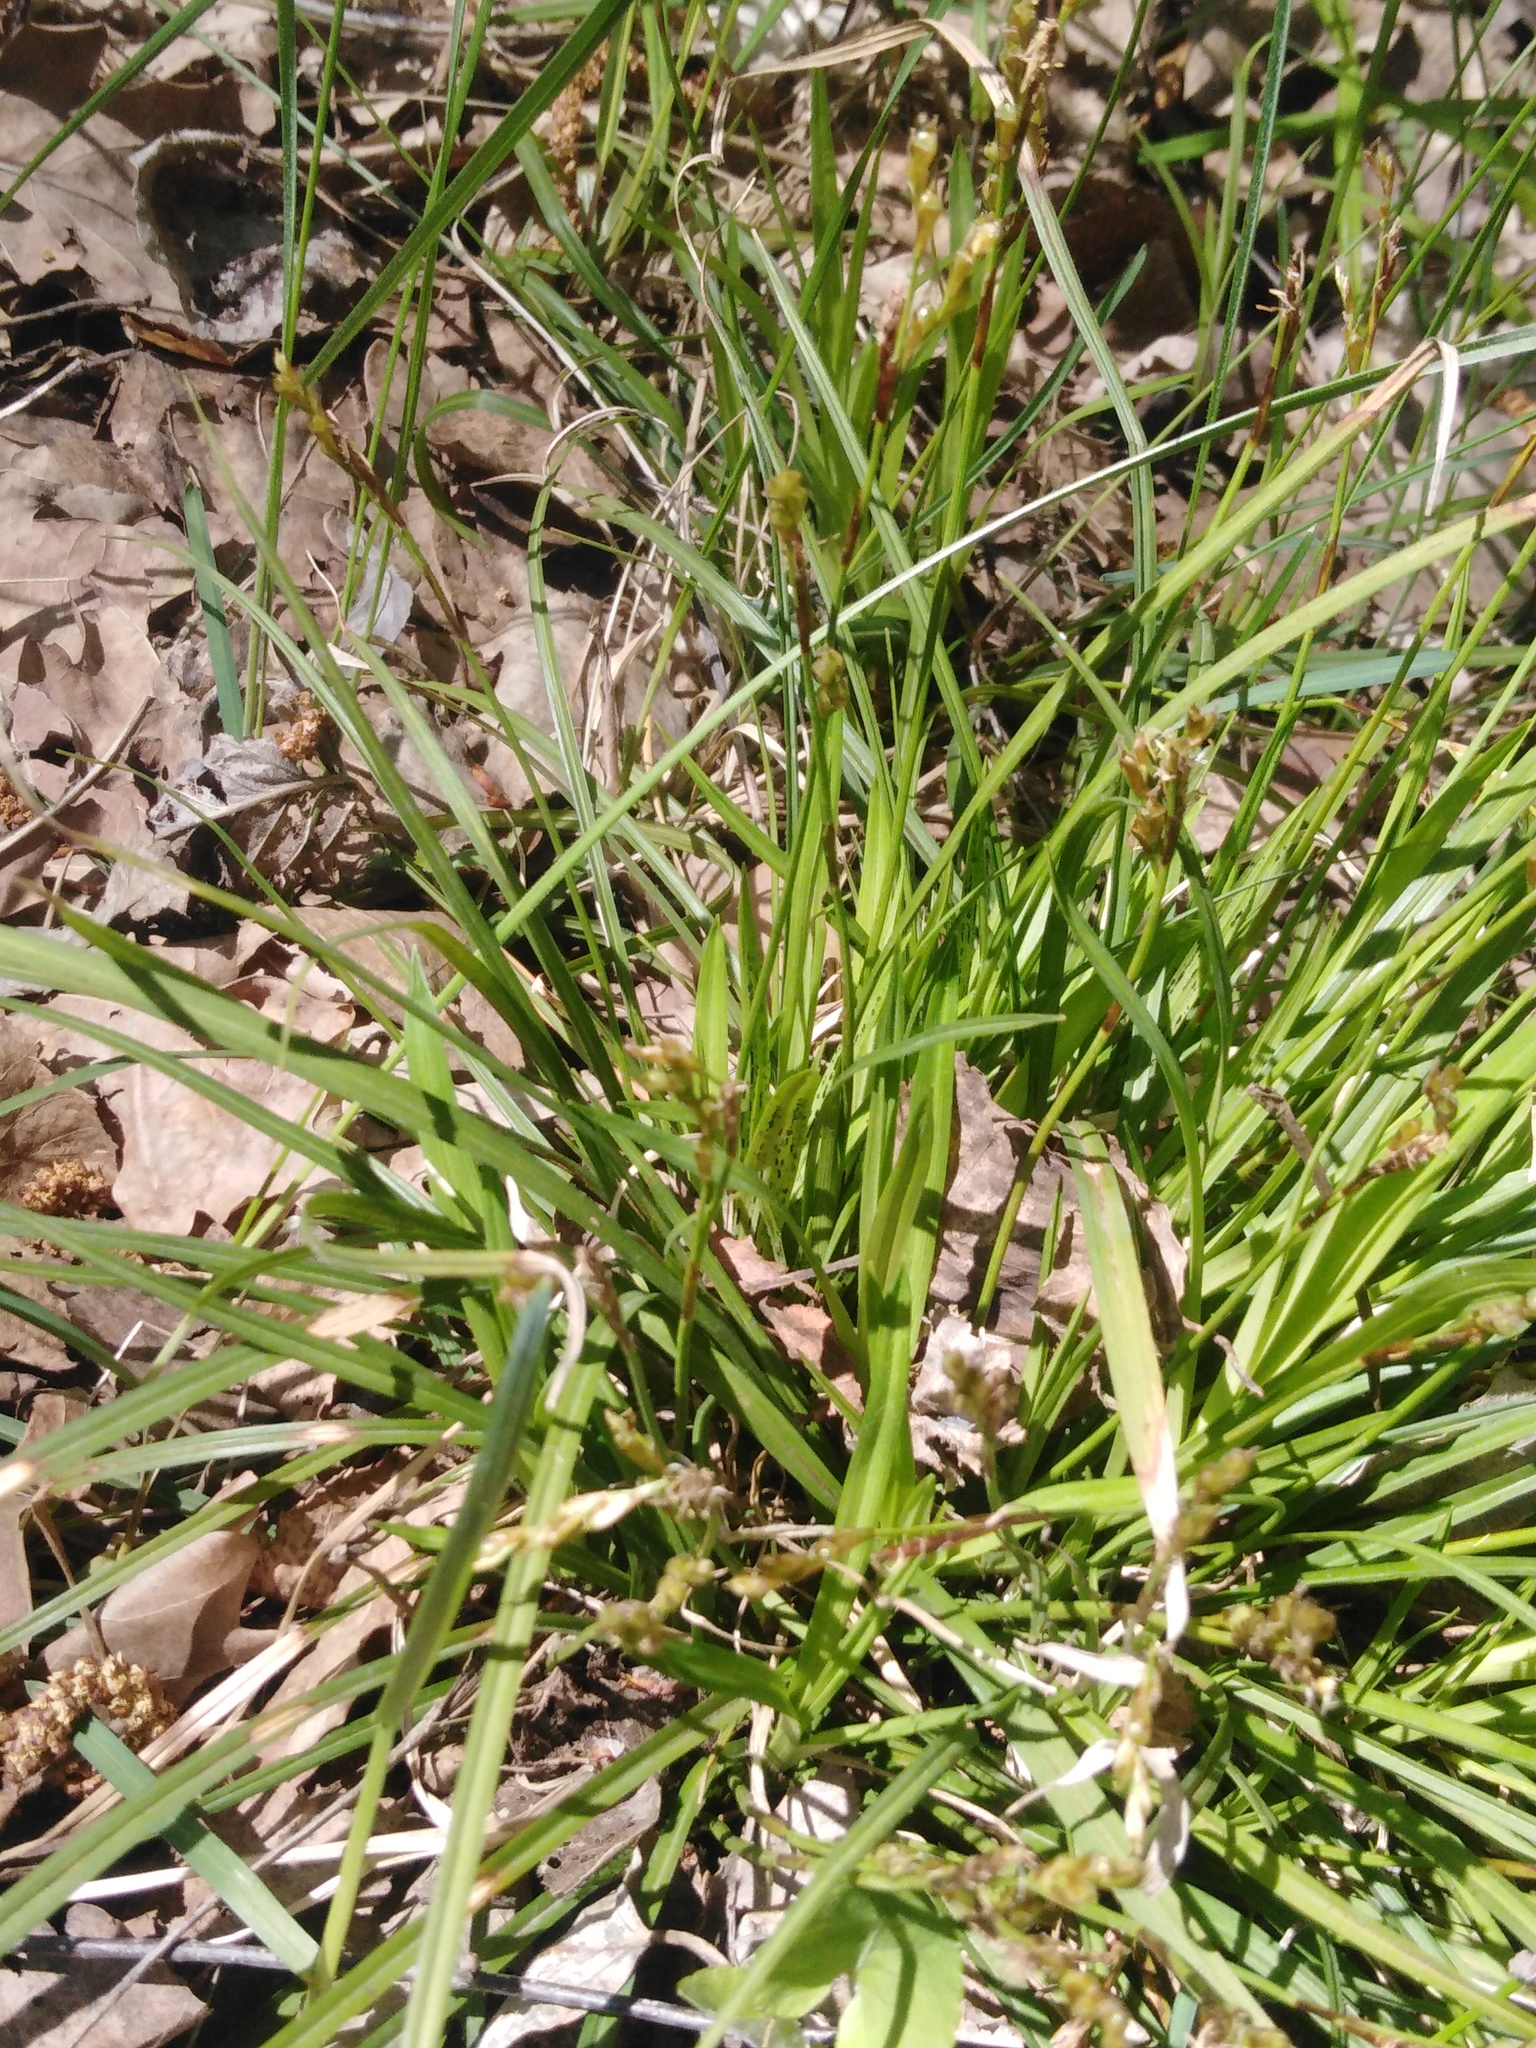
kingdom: Plantae
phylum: Tracheophyta
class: Liliopsida
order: Poales
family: Cyperaceae
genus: Carex
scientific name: Carex digitata
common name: Fingered sedge
